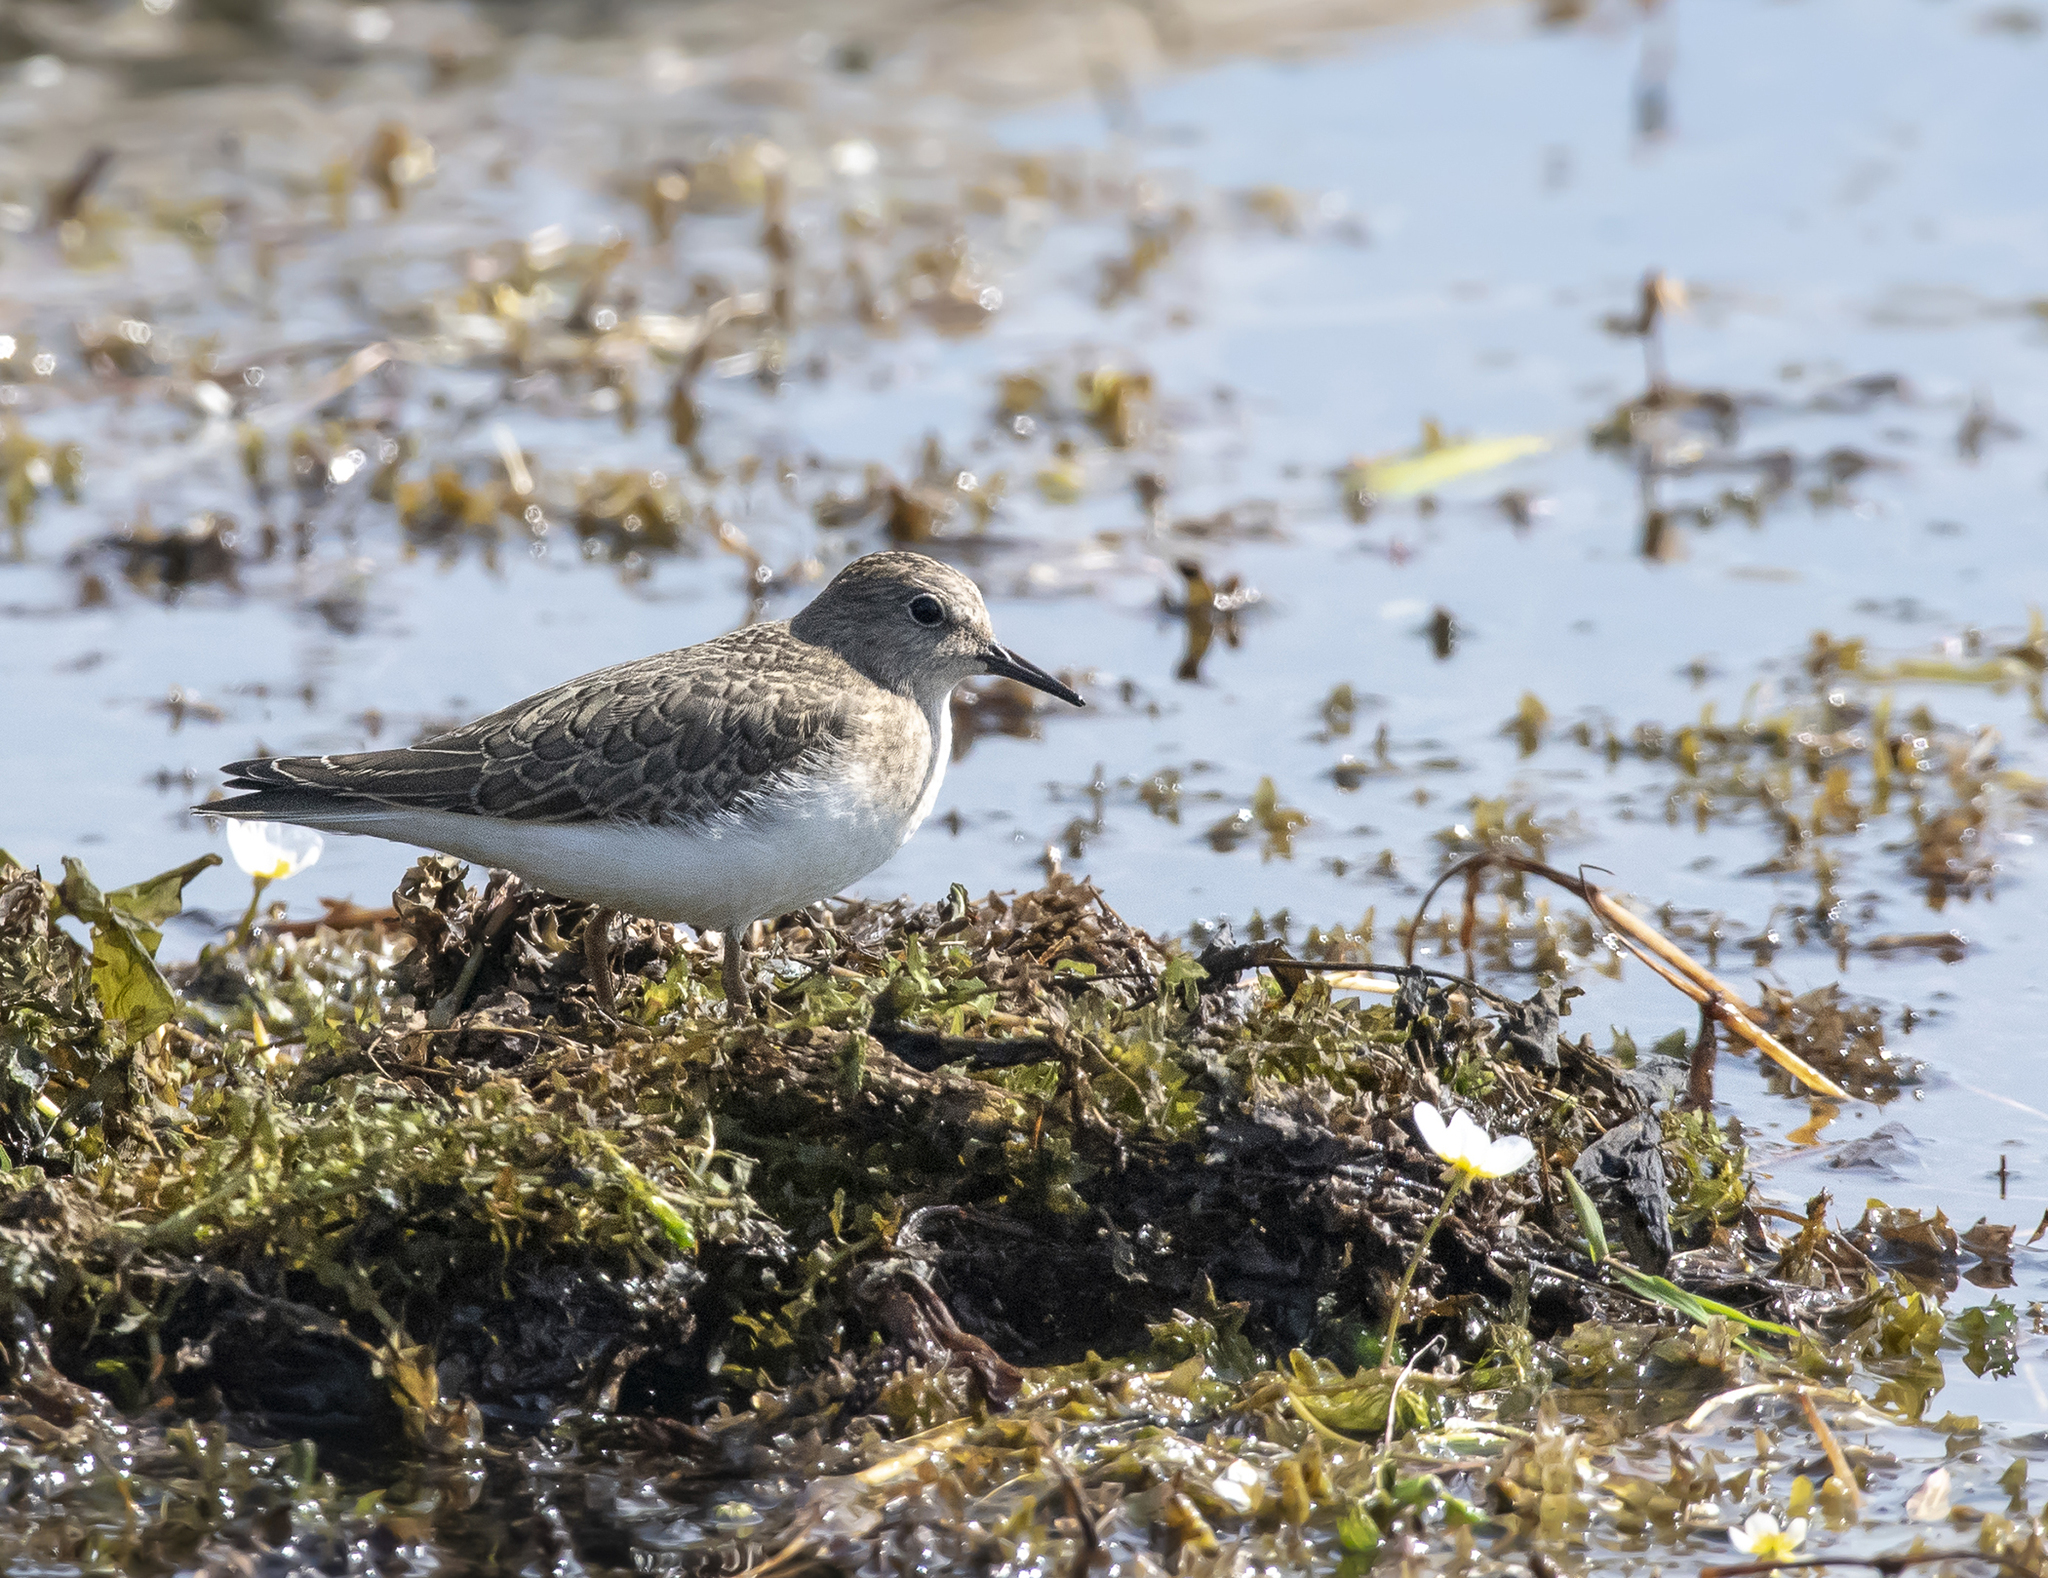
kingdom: Animalia
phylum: Chordata
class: Aves
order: Charadriiformes
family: Scolopacidae
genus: Calidris
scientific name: Calidris temminckii
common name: Temminck's stint
